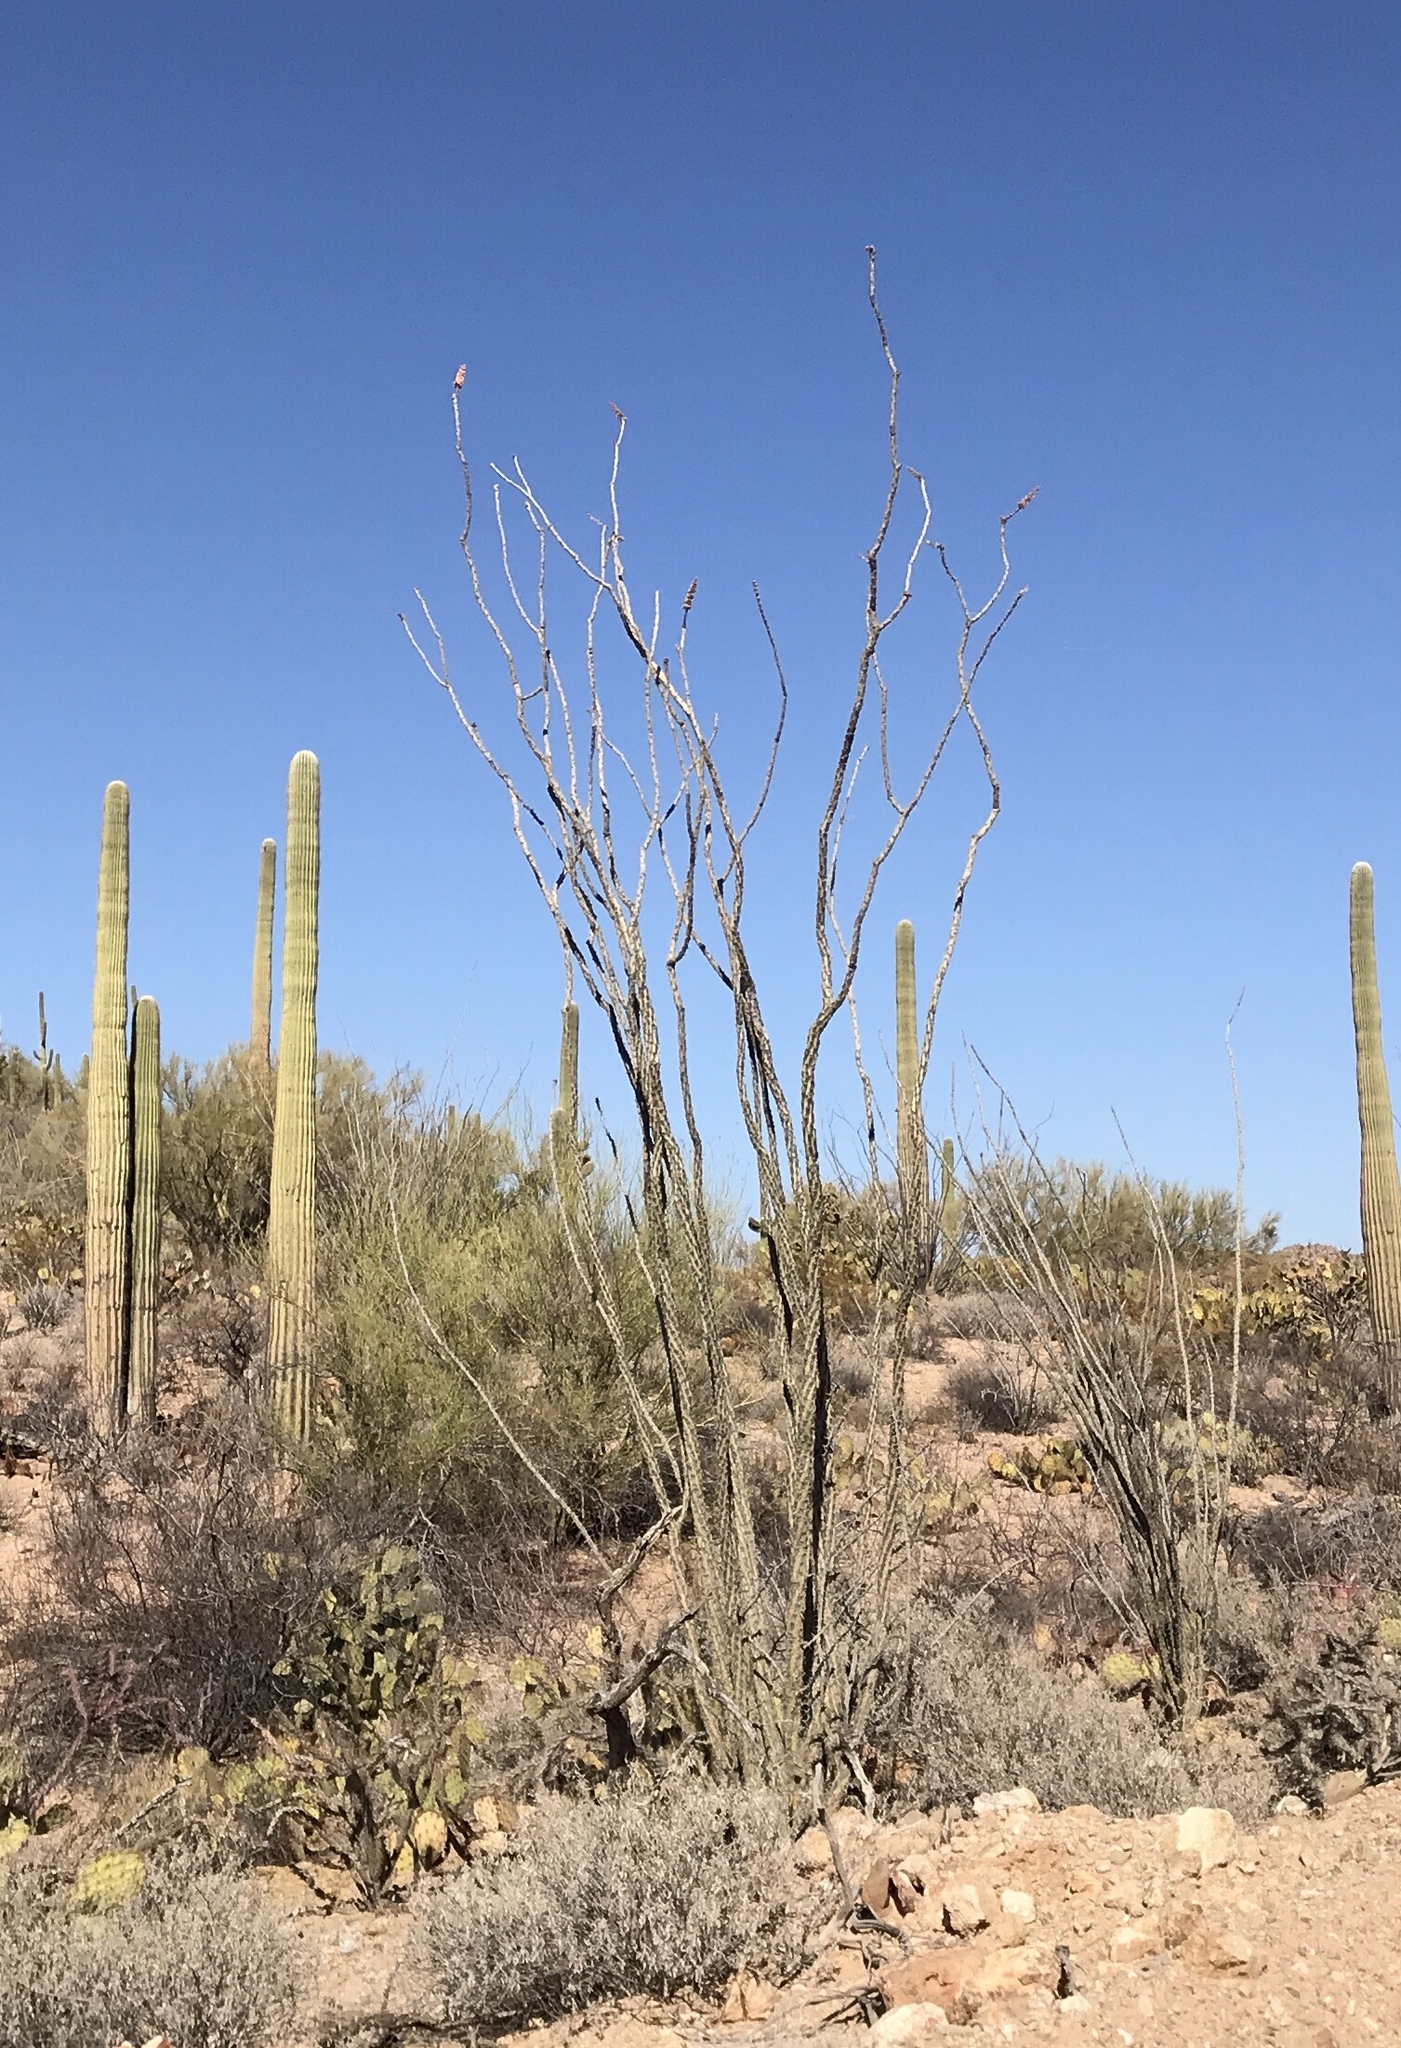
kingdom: Plantae
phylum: Tracheophyta
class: Magnoliopsida
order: Ericales
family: Fouquieriaceae
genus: Fouquieria
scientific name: Fouquieria splendens
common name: Vine-cactus
